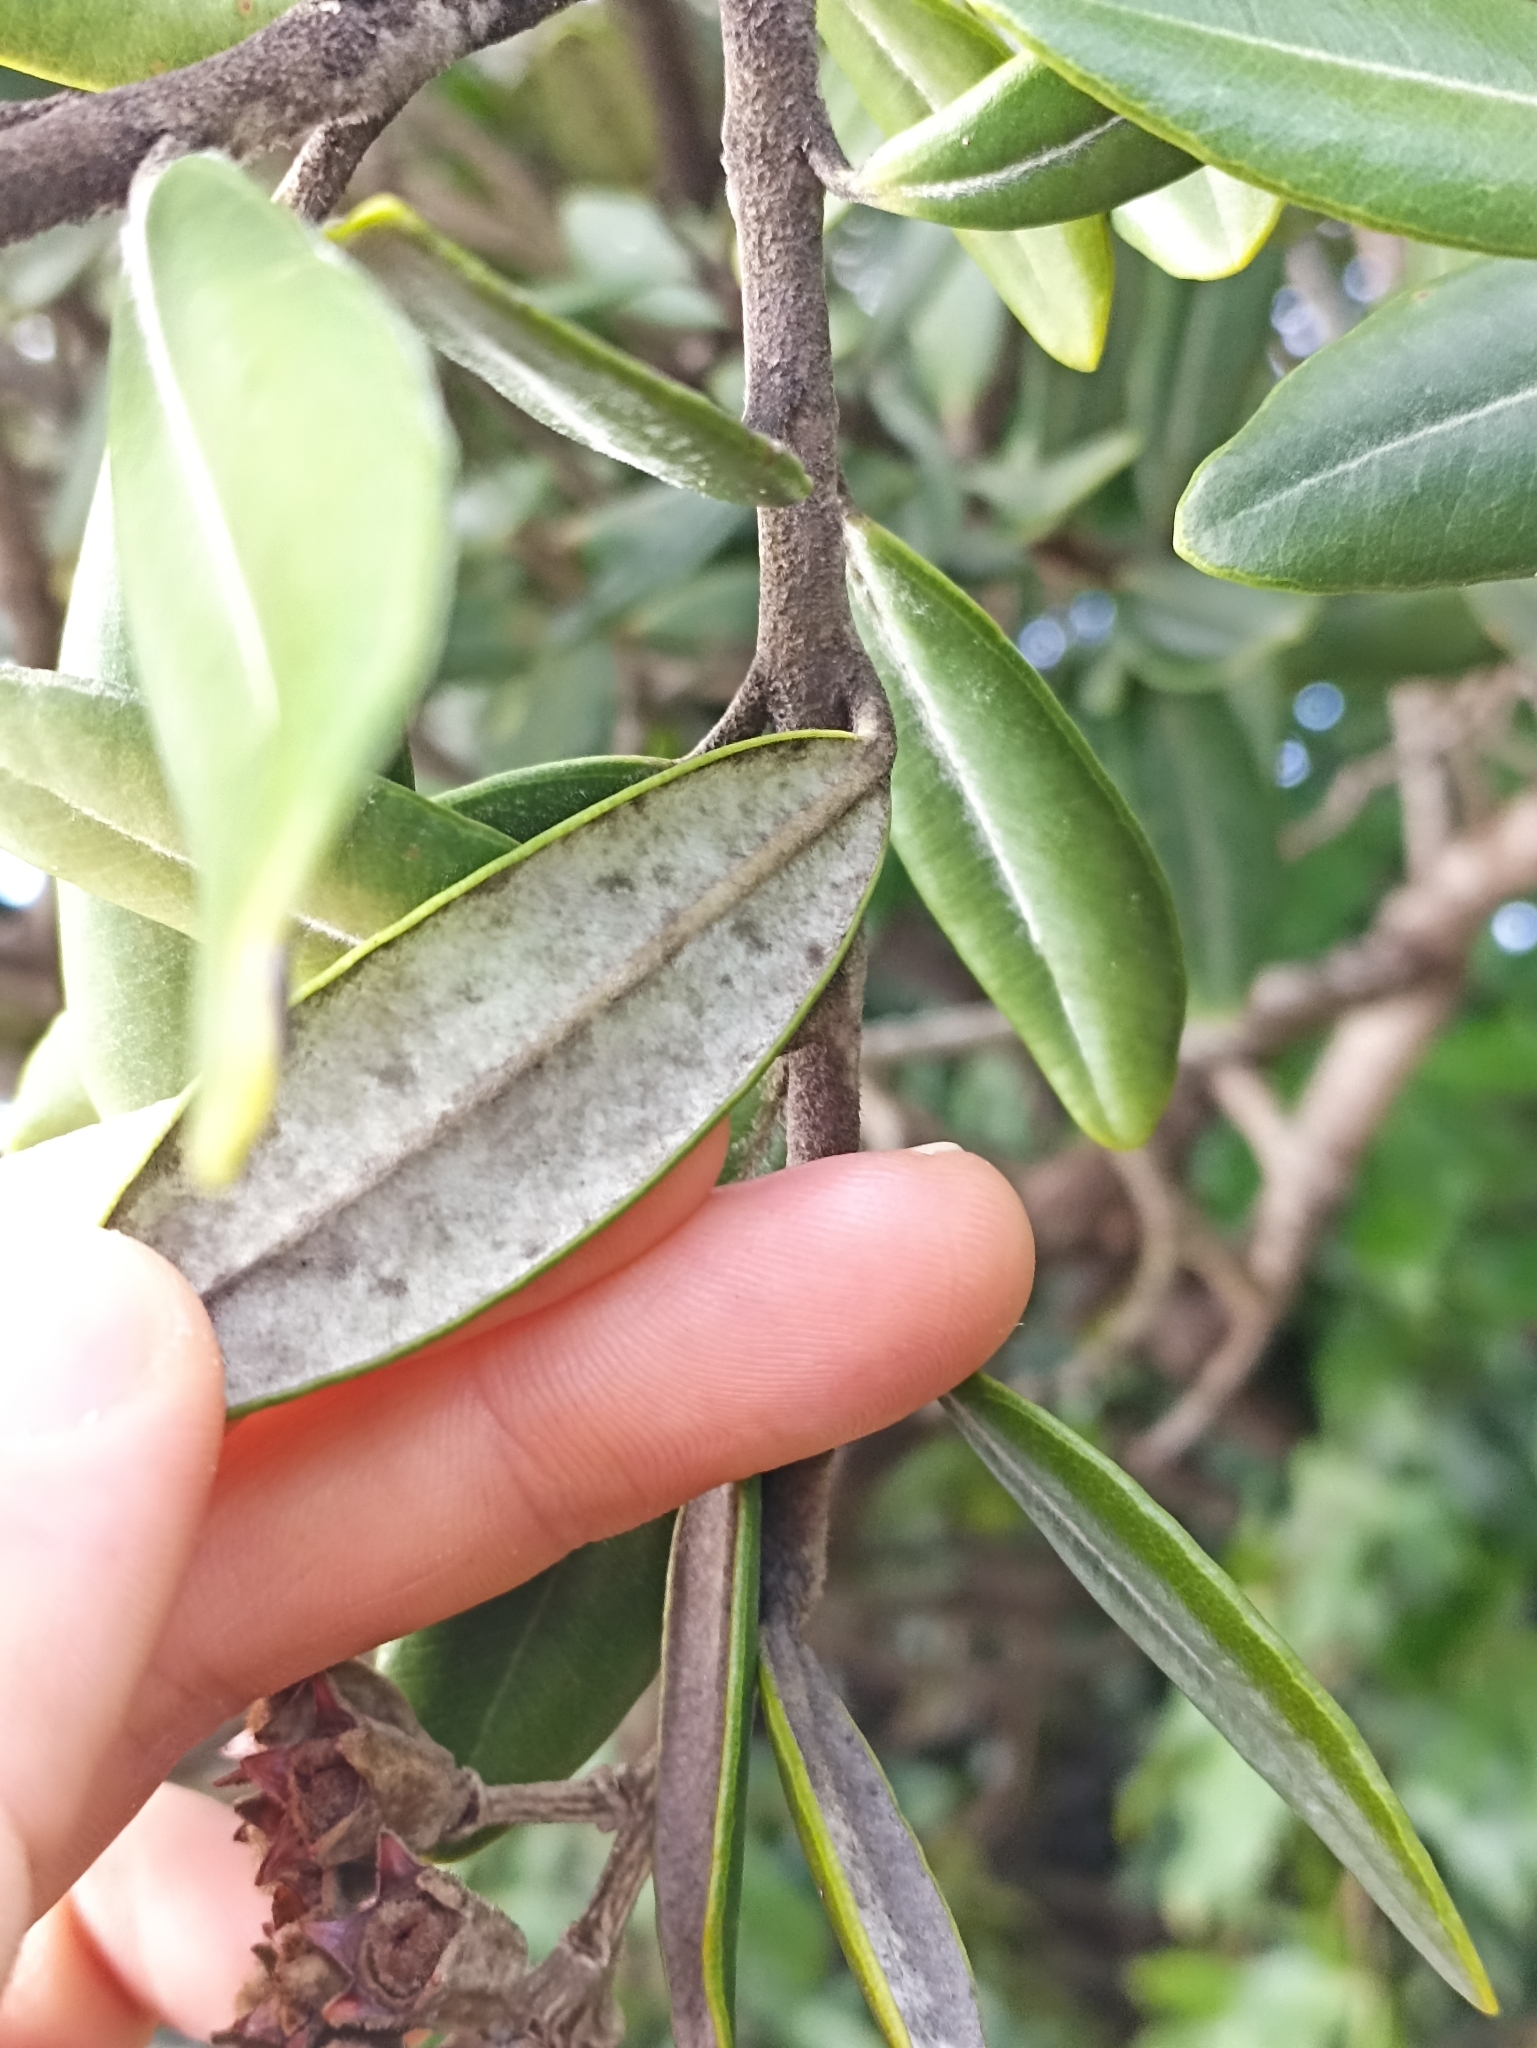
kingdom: Plantae
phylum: Tracheophyta
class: Magnoliopsida
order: Myrtales
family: Myrtaceae
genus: Metrosideros
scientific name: Metrosideros excelsa
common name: New zealand christmastree
